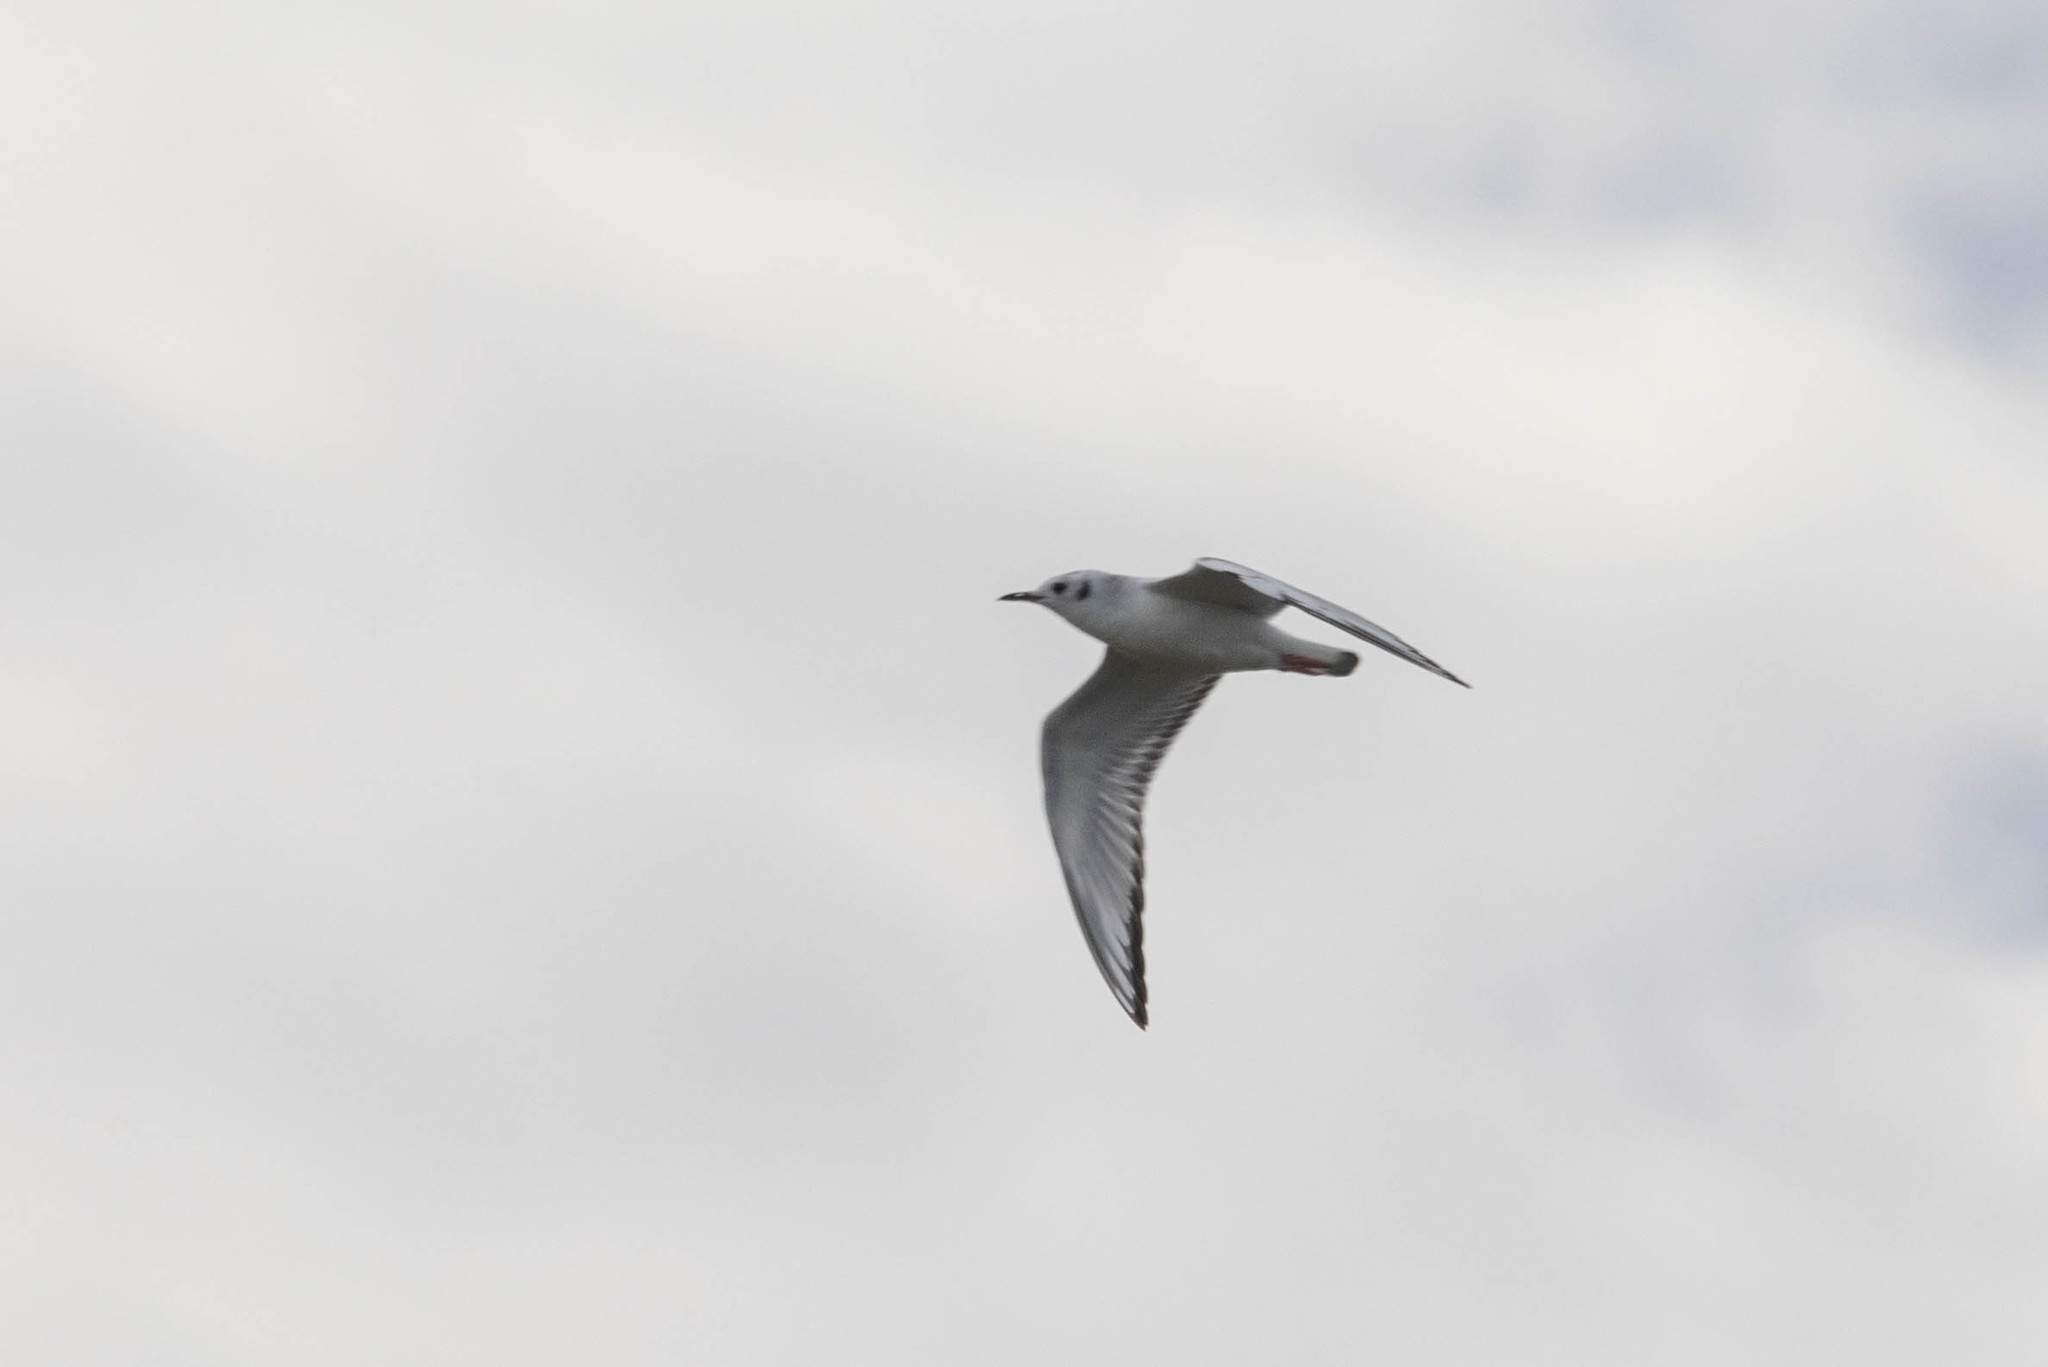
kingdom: Animalia
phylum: Chordata
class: Aves
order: Charadriiformes
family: Laridae
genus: Chroicocephalus
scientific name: Chroicocephalus philadelphia
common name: Bonaparte's gull
